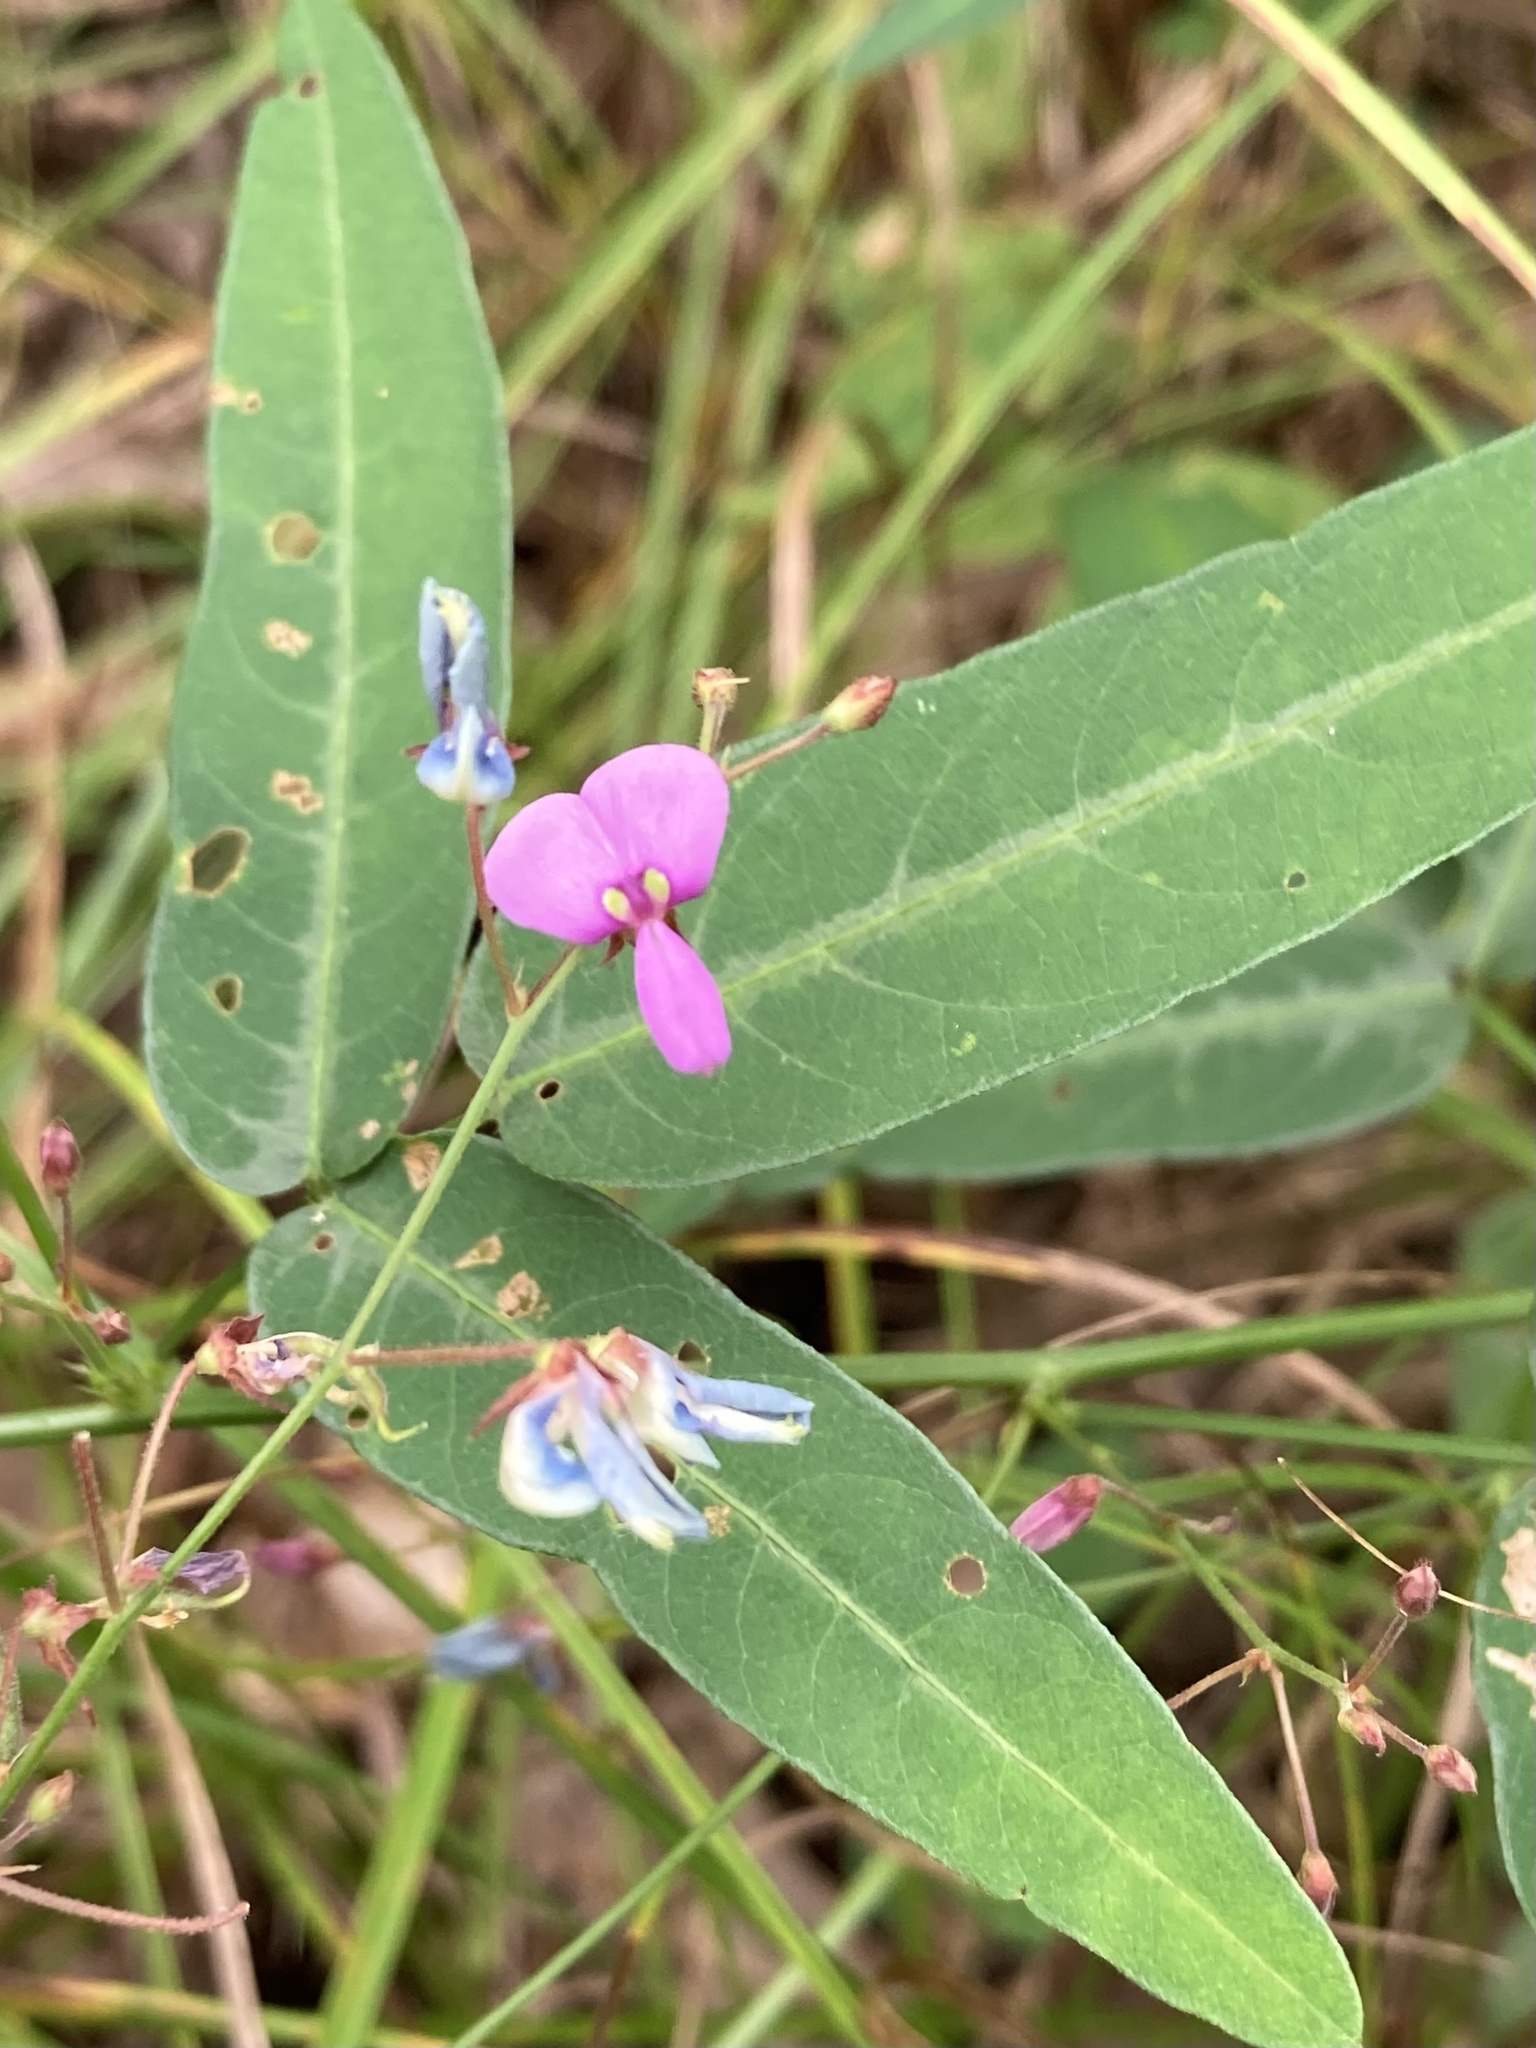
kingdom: Plantae
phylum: Tracheophyta
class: Magnoliopsida
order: Fabales
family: Fabaceae
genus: Desmodium
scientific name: Desmodium paniculatum
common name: Panicled tick-clover
